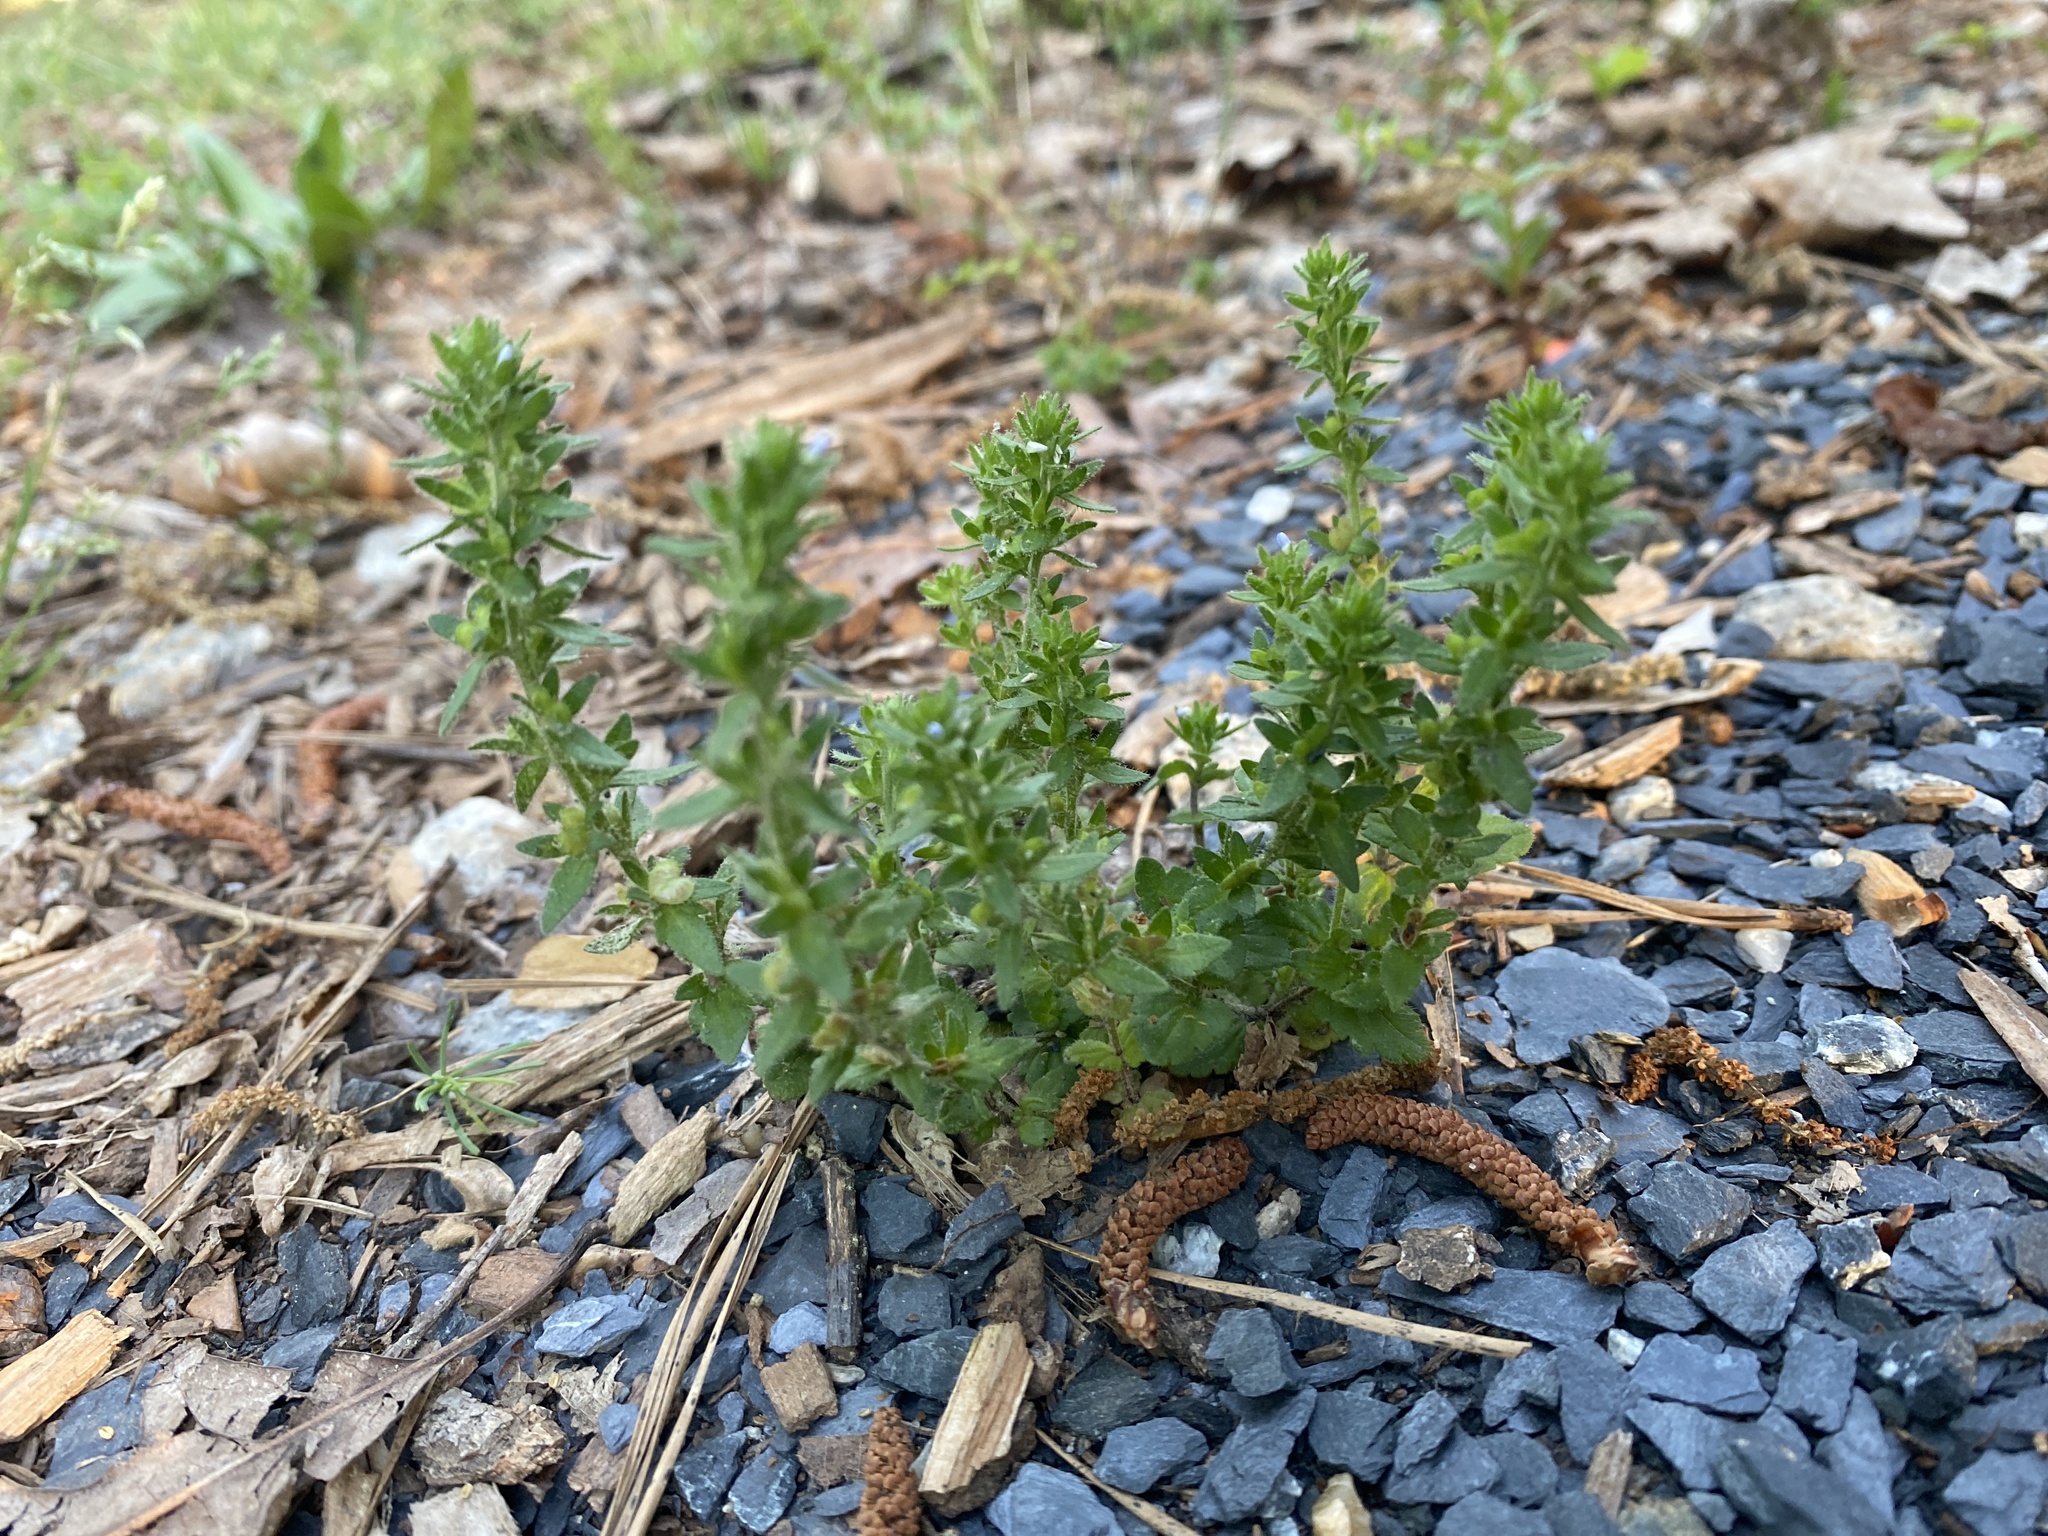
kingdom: Plantae
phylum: Tracheophyta
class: Magnoliopsida
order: Lamiales
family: Plantaginaceae
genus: Veronica
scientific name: Veronica arvensis
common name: Corn speedwell
